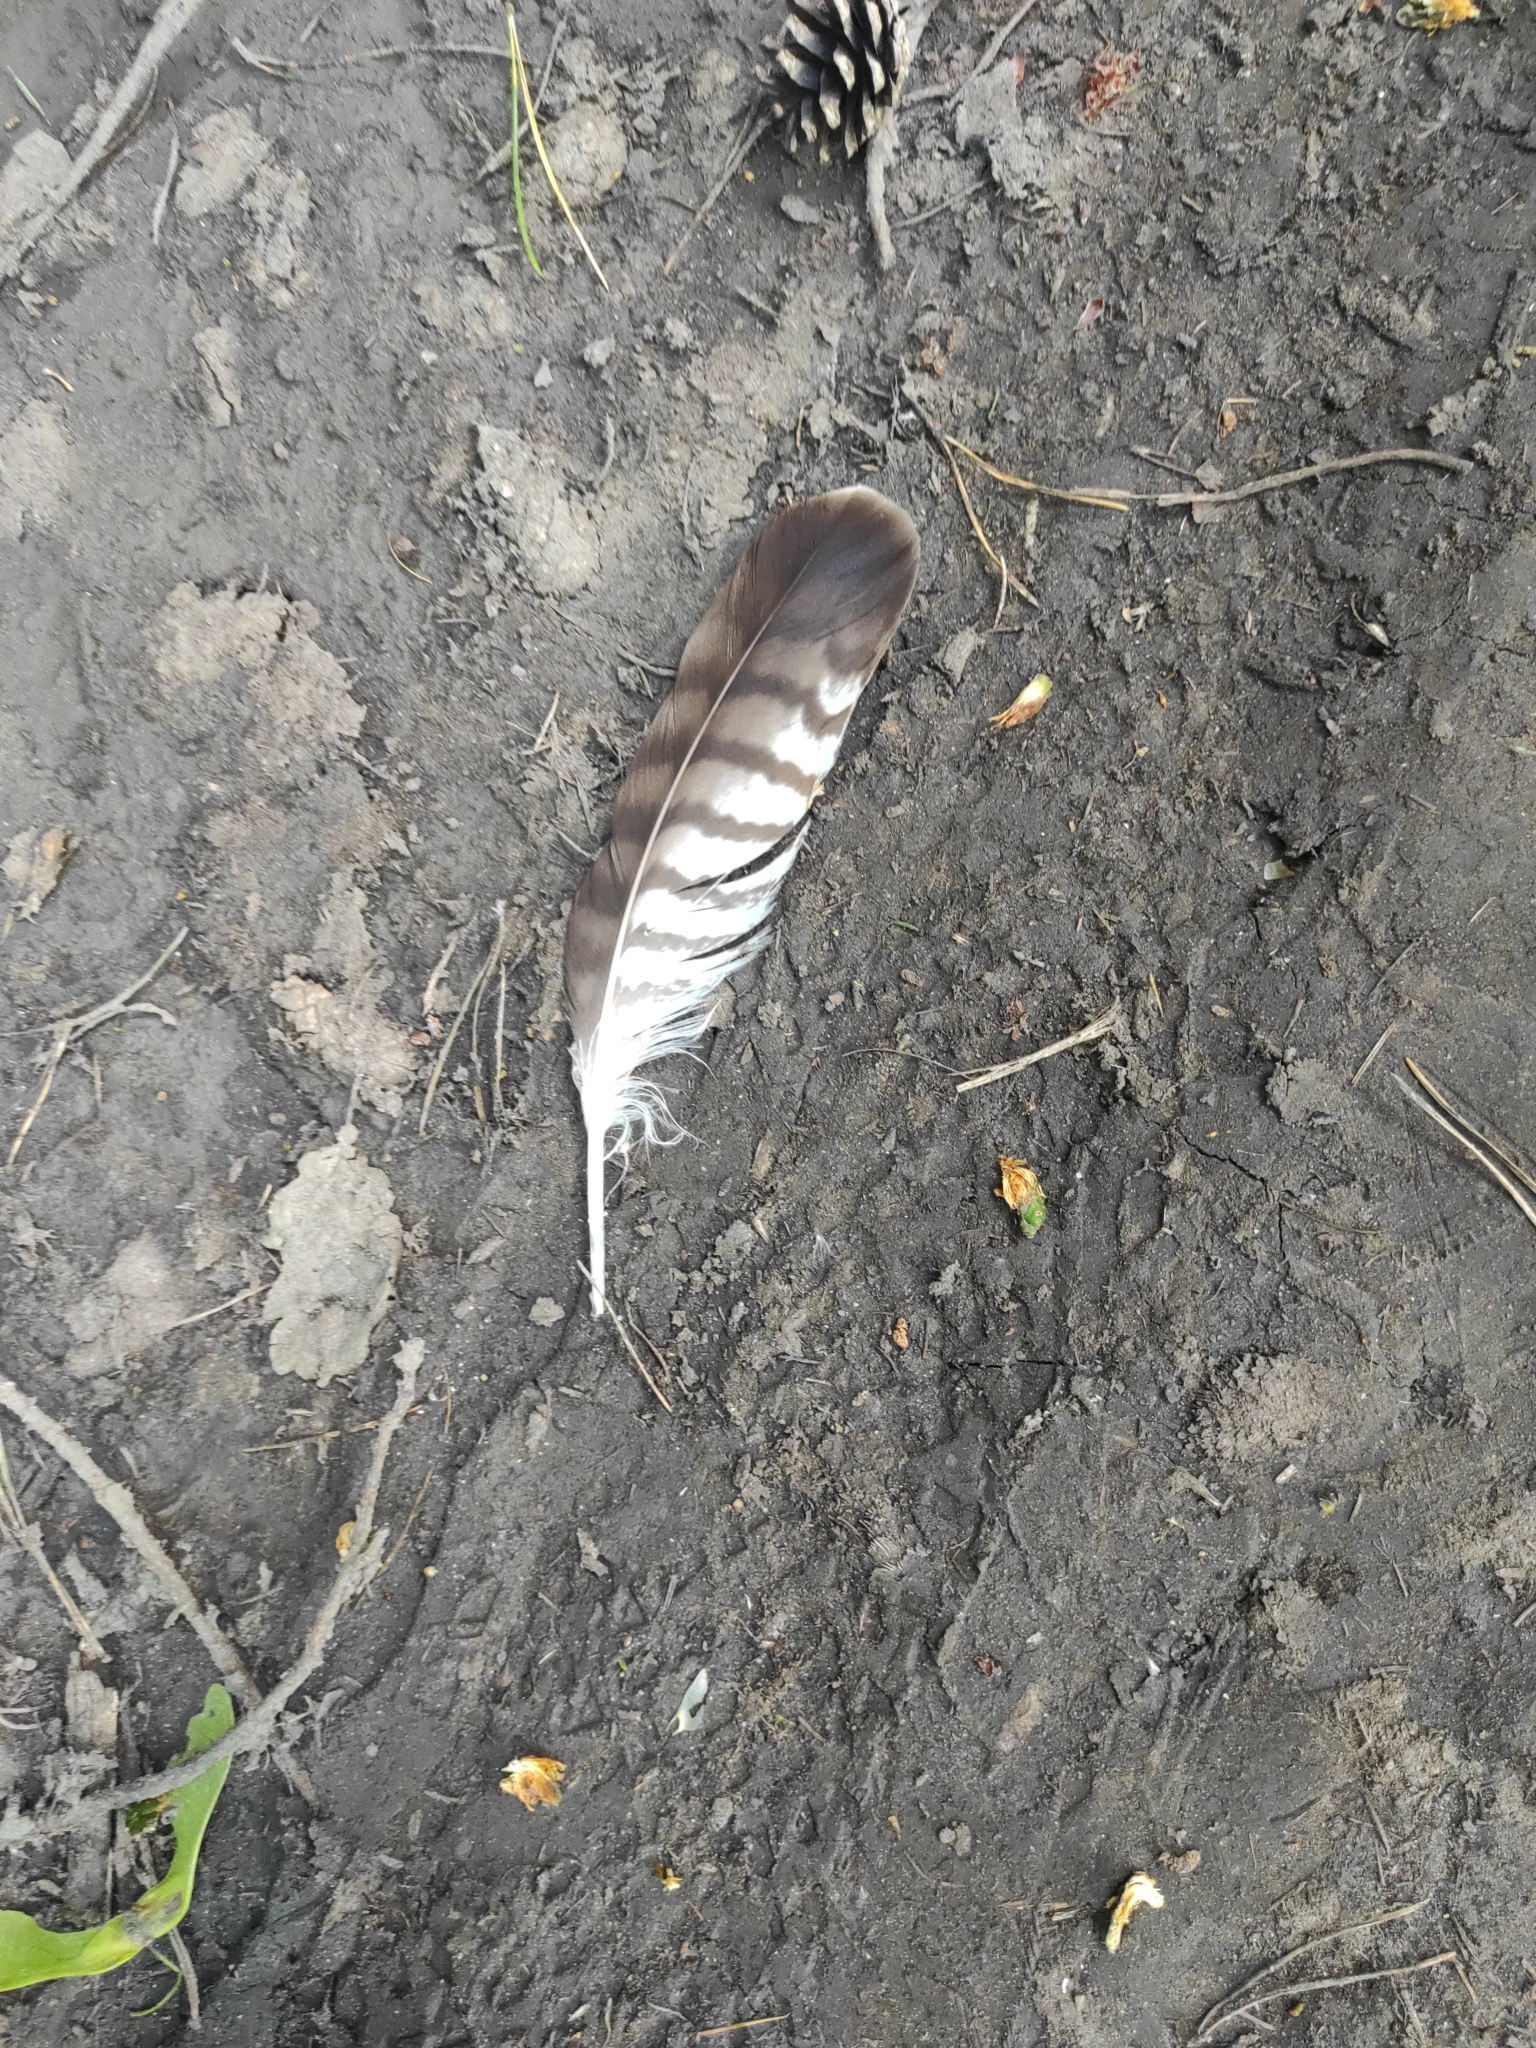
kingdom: Animalia
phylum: Chordata
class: Aves
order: Accipitriformes
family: Accipitridae
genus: Buteo
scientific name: Buteo buteo
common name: Common buzzard
